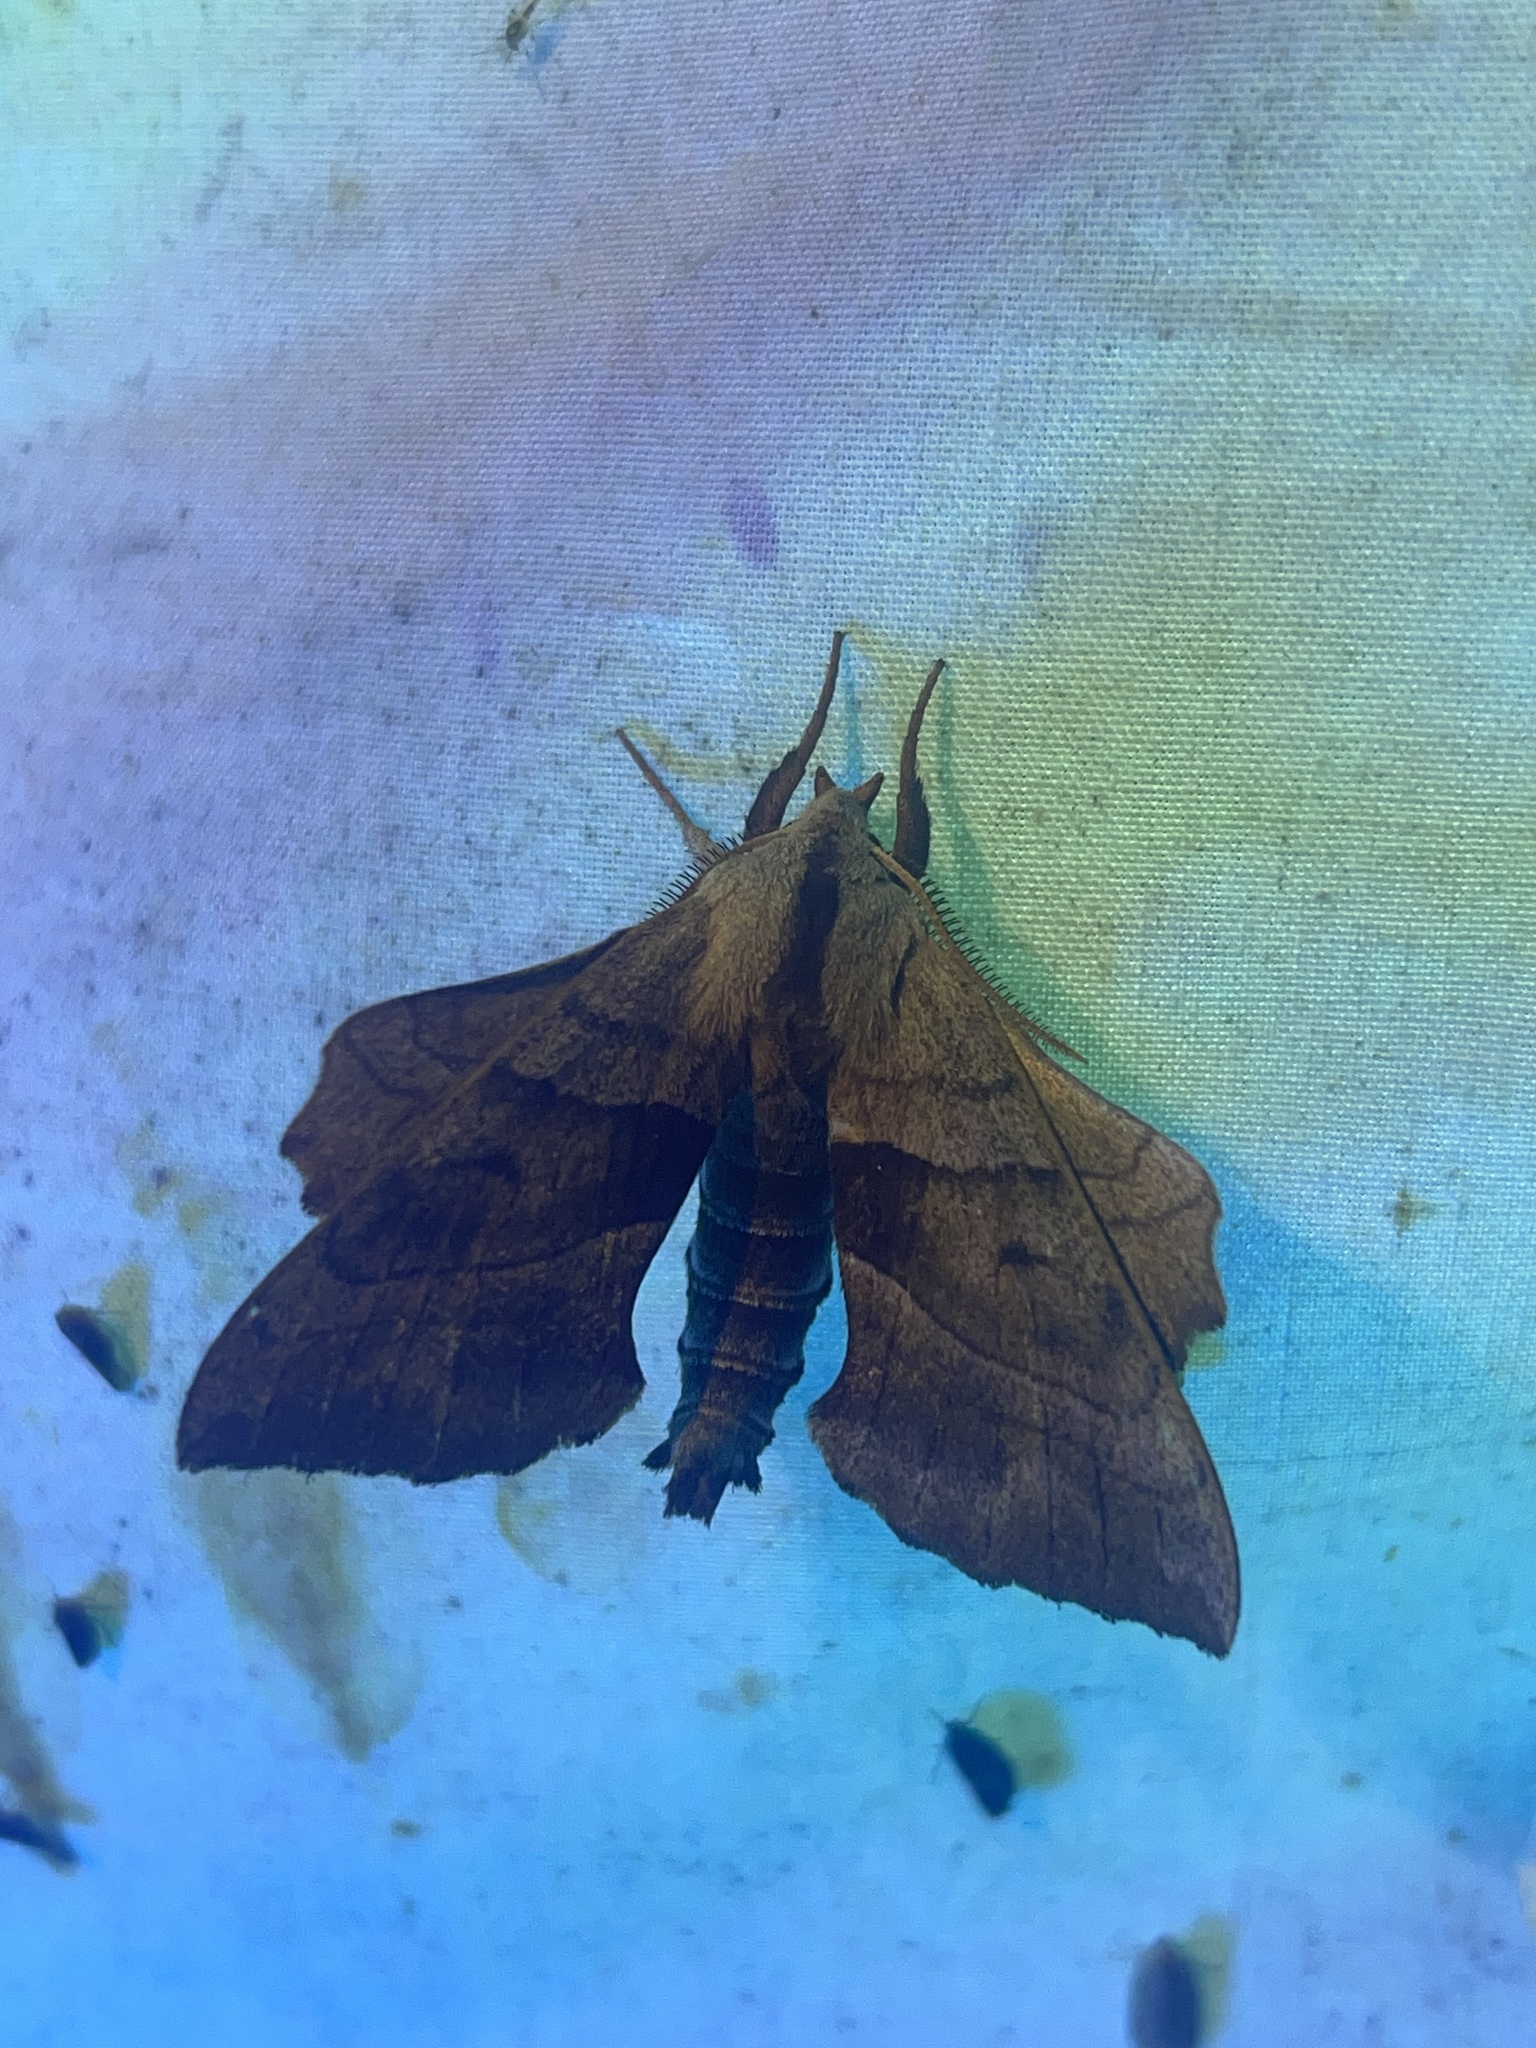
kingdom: Animalia
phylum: Arthropoda
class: Insecta
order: Lepidoptera
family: Sphingidae
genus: Amorpha
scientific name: Amorpha juglandis
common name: Walnut sphinx
